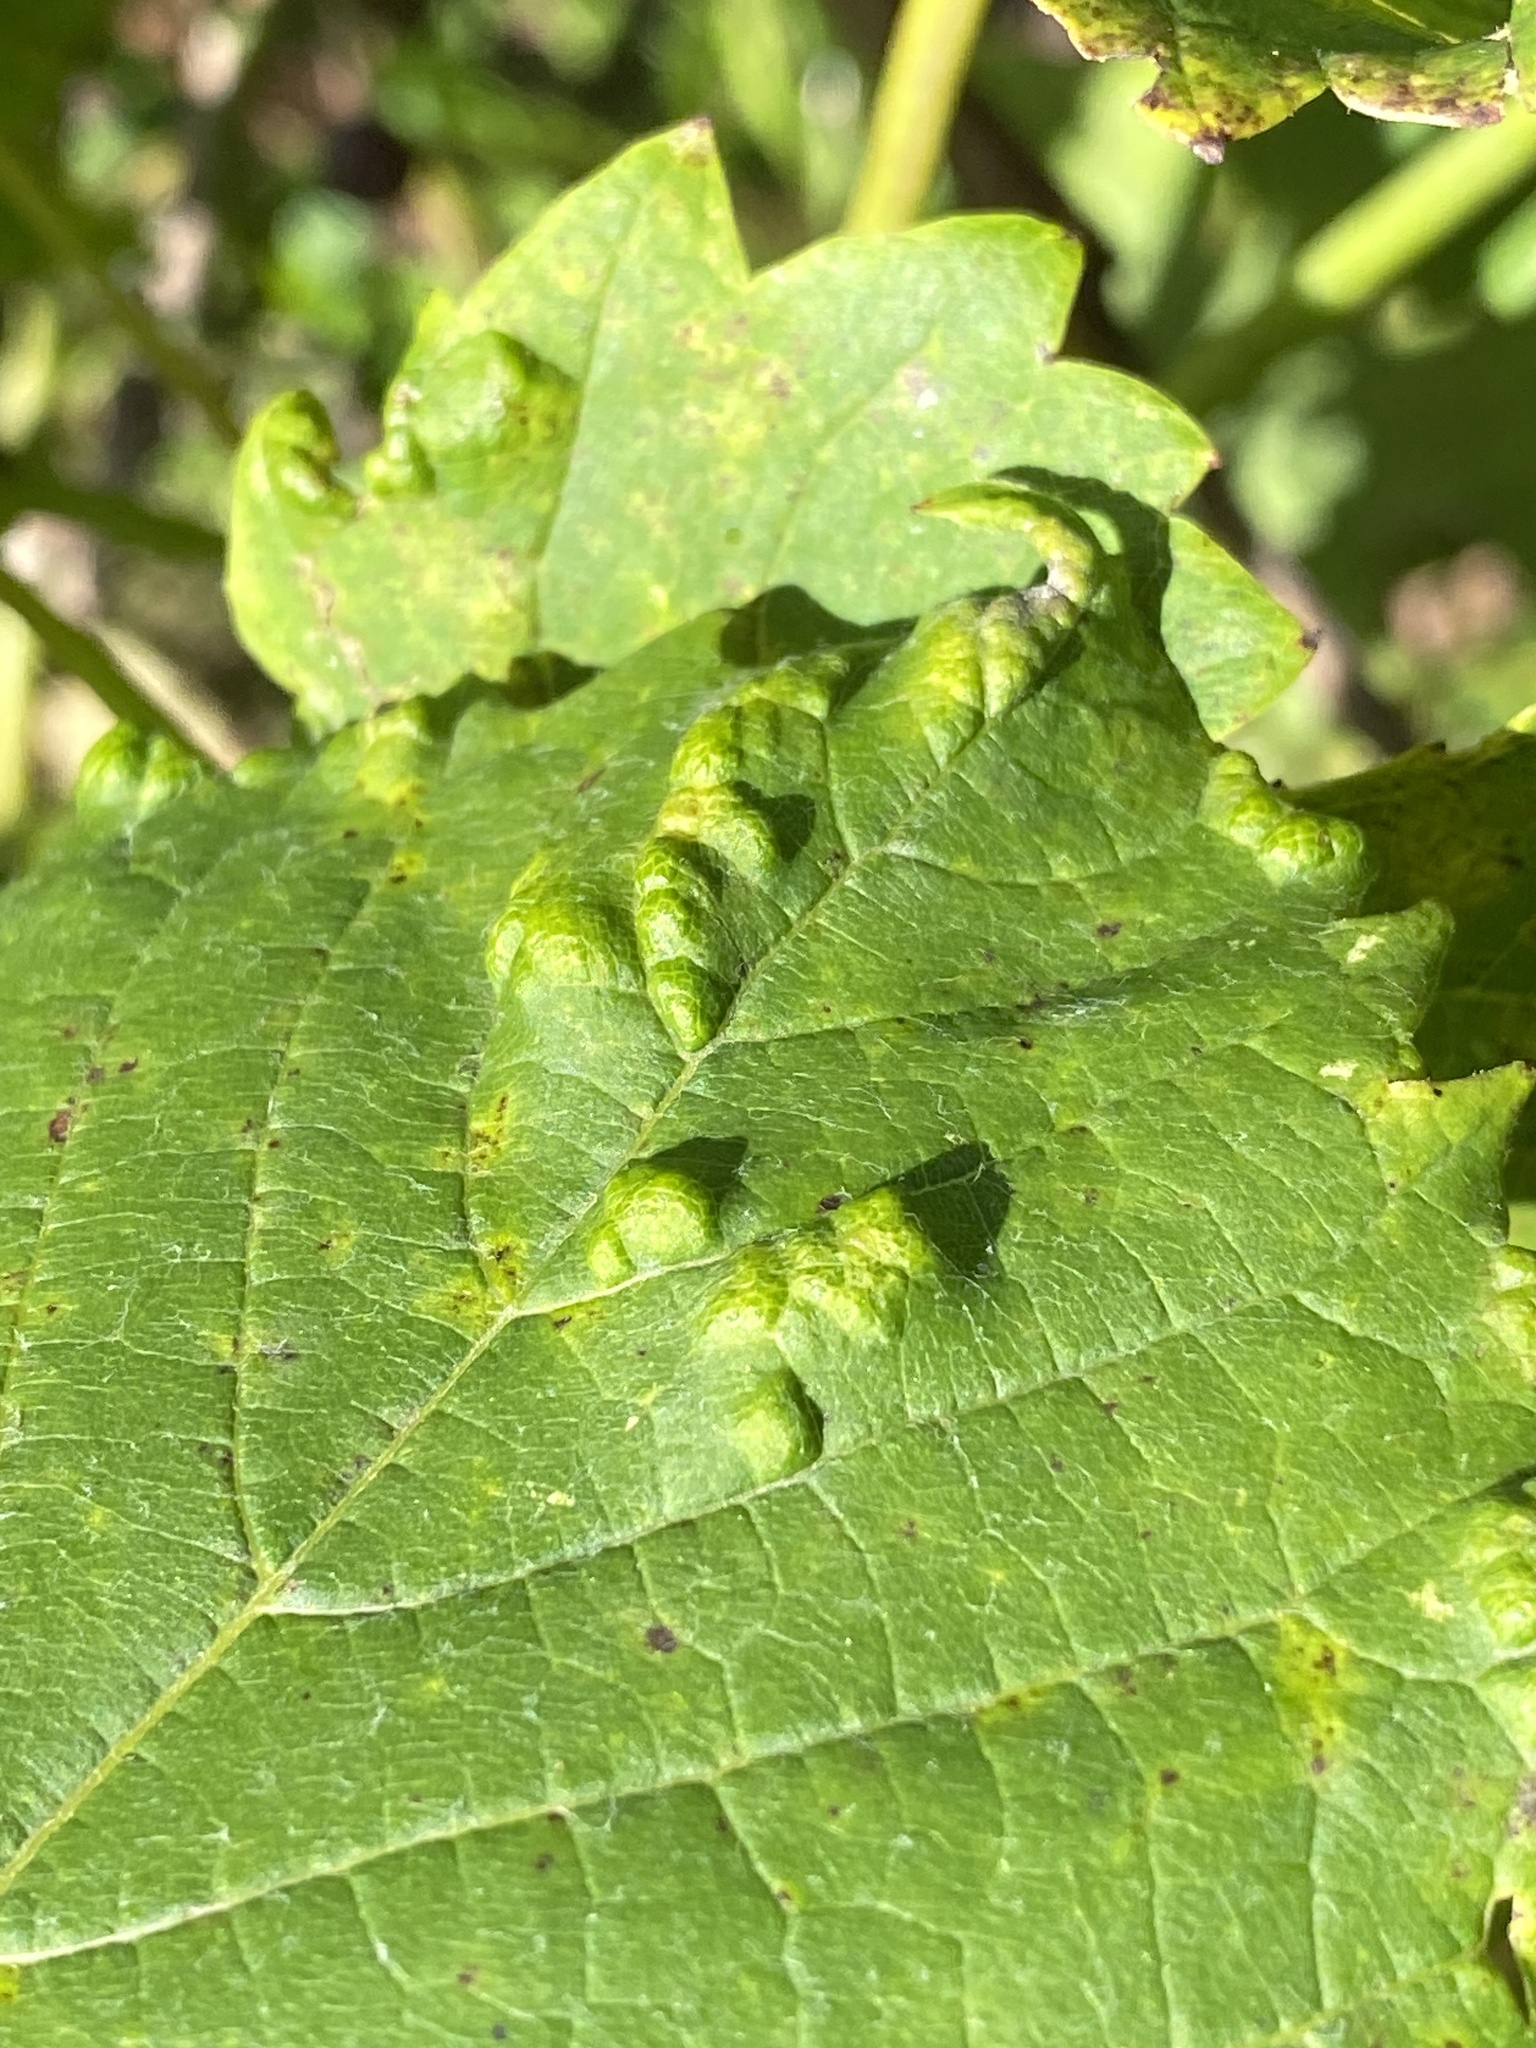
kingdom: Animalia
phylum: Arthropoda
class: Arachnida
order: Trombidiformes
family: Eriophyidae
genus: Colomerus
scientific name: Colomerus vitis
